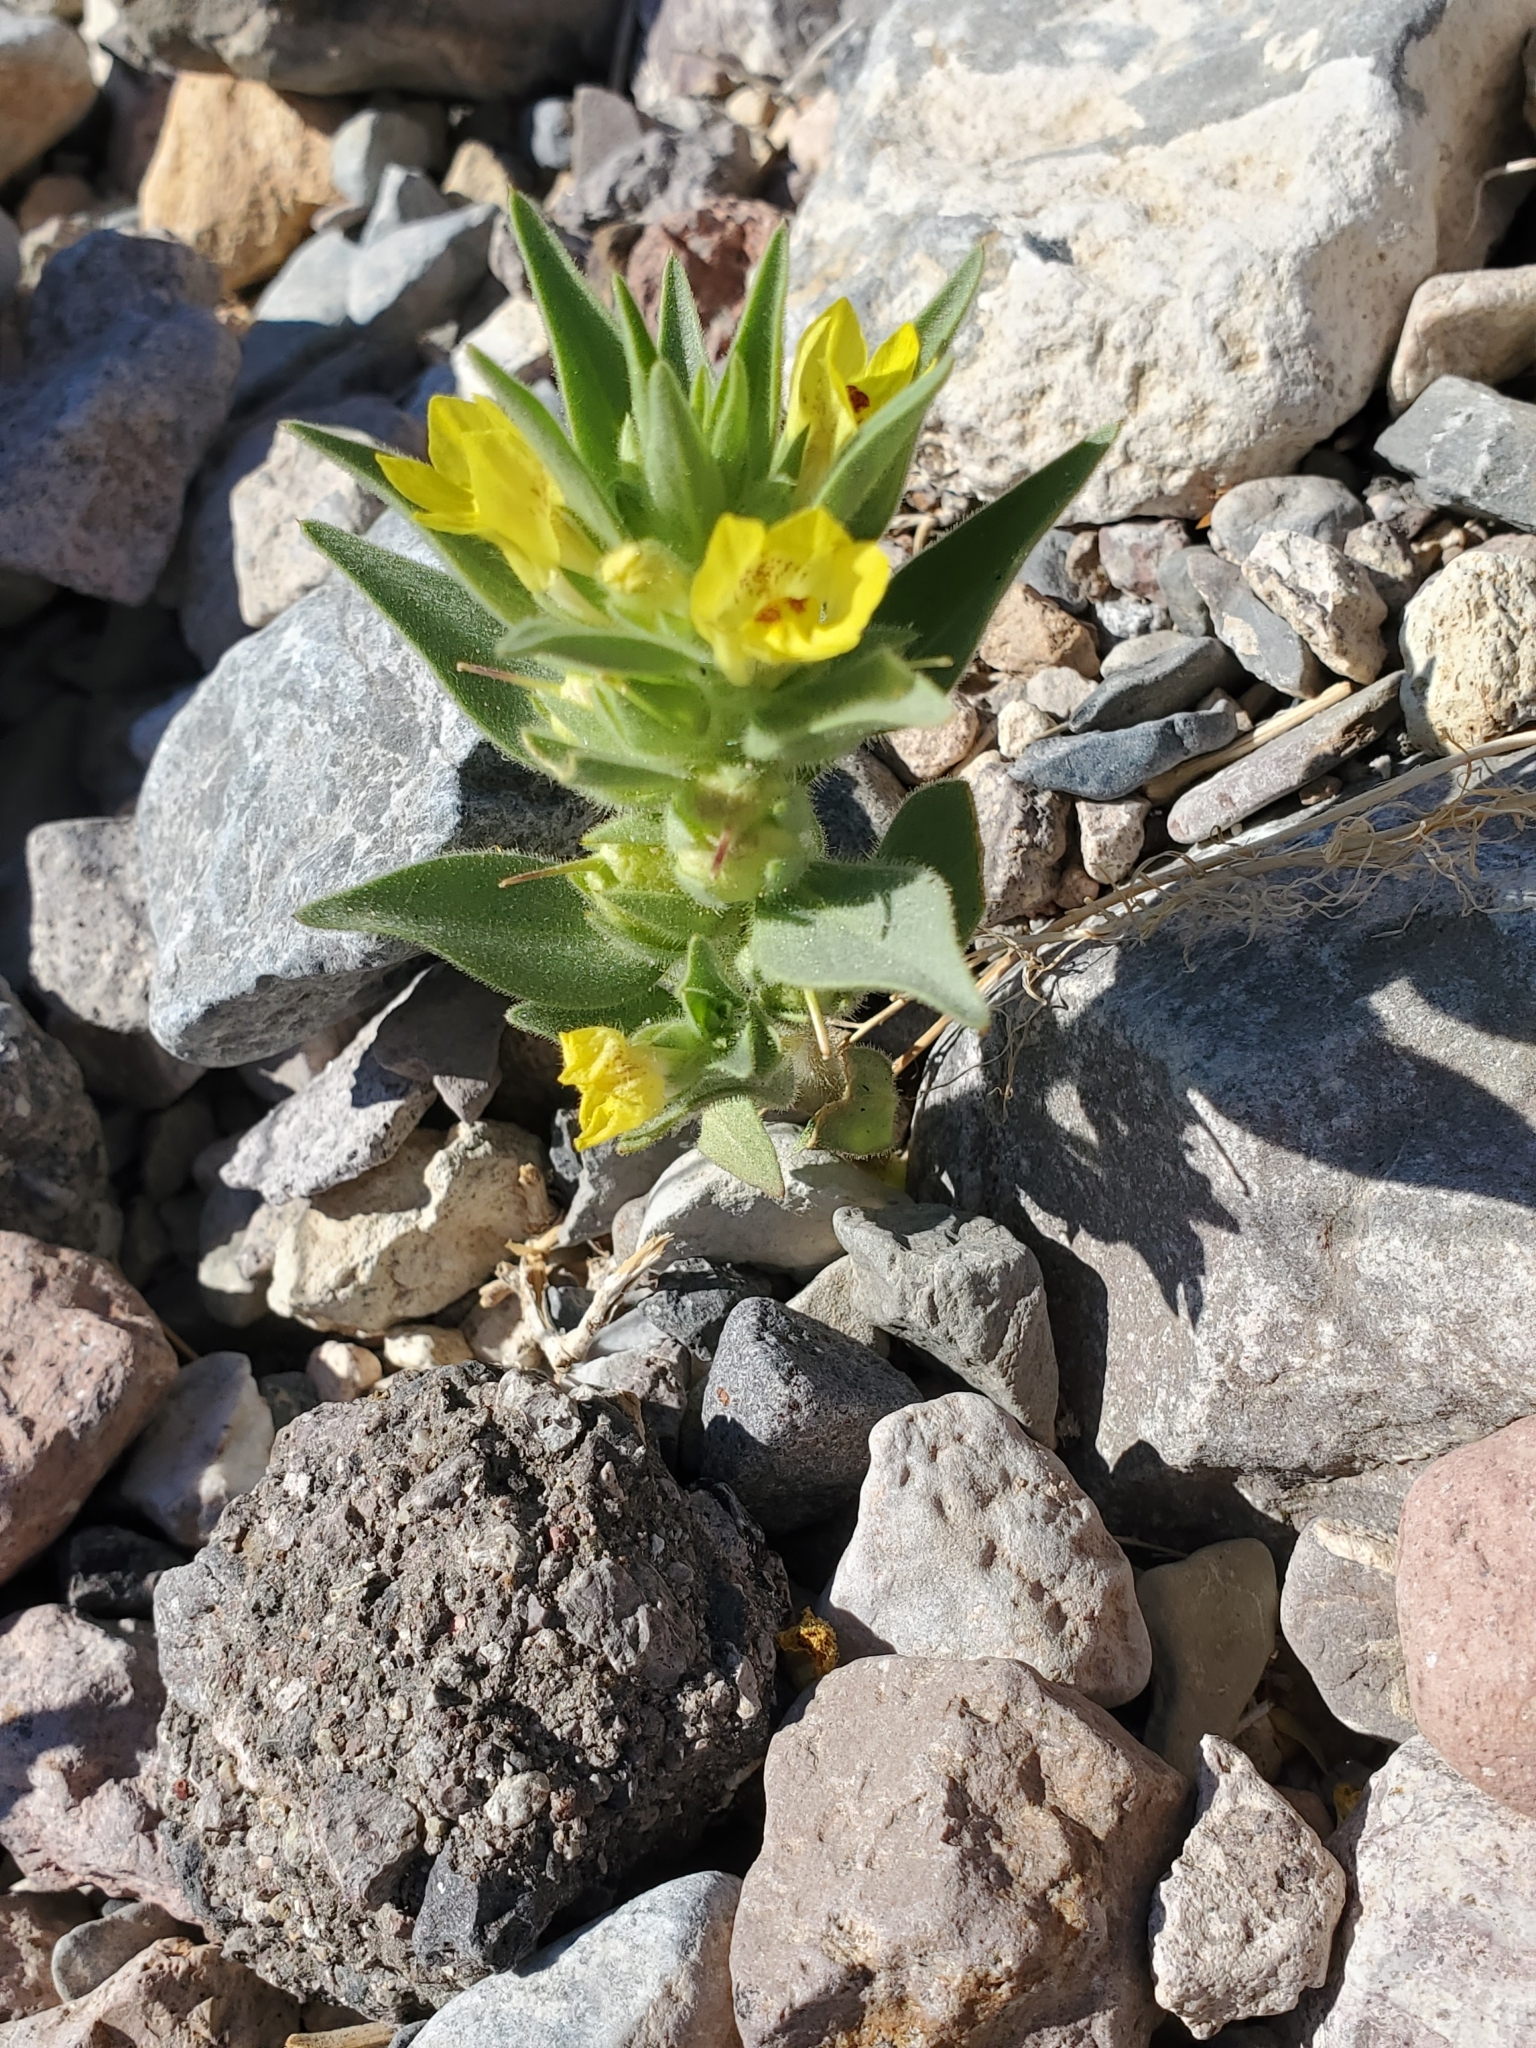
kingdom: Plantae
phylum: Tracheophyta
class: Magnoliopsida
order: Lamiales
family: Plantaginaceae
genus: Mohavea
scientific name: Mohavea breviflora
